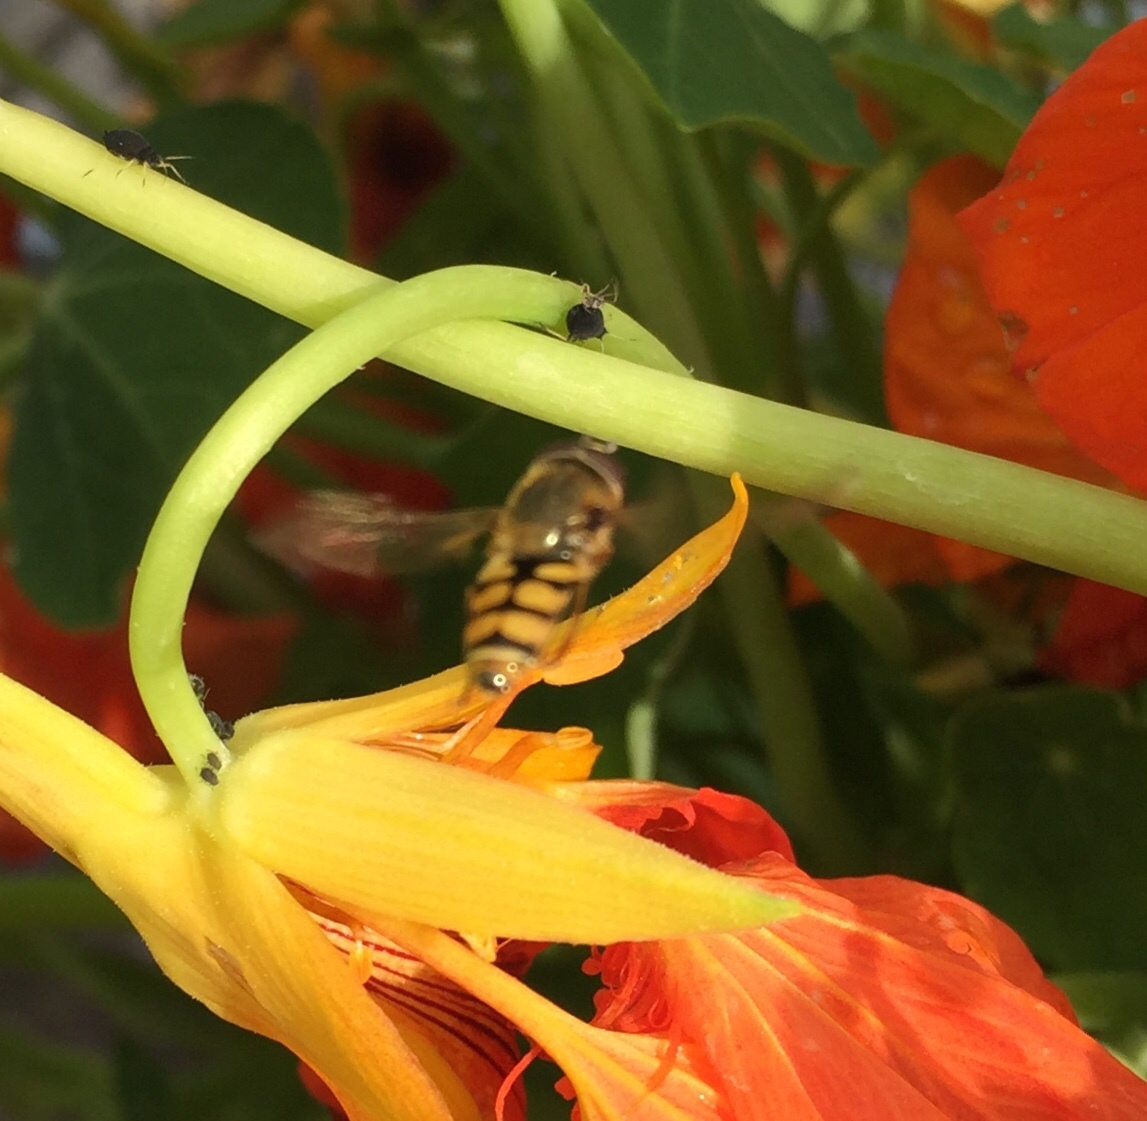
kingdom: Animalia
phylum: Arthropoda
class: Insecta
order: Diptera
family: Syrphidae
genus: Eupeodes
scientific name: Eupeodes corollae
